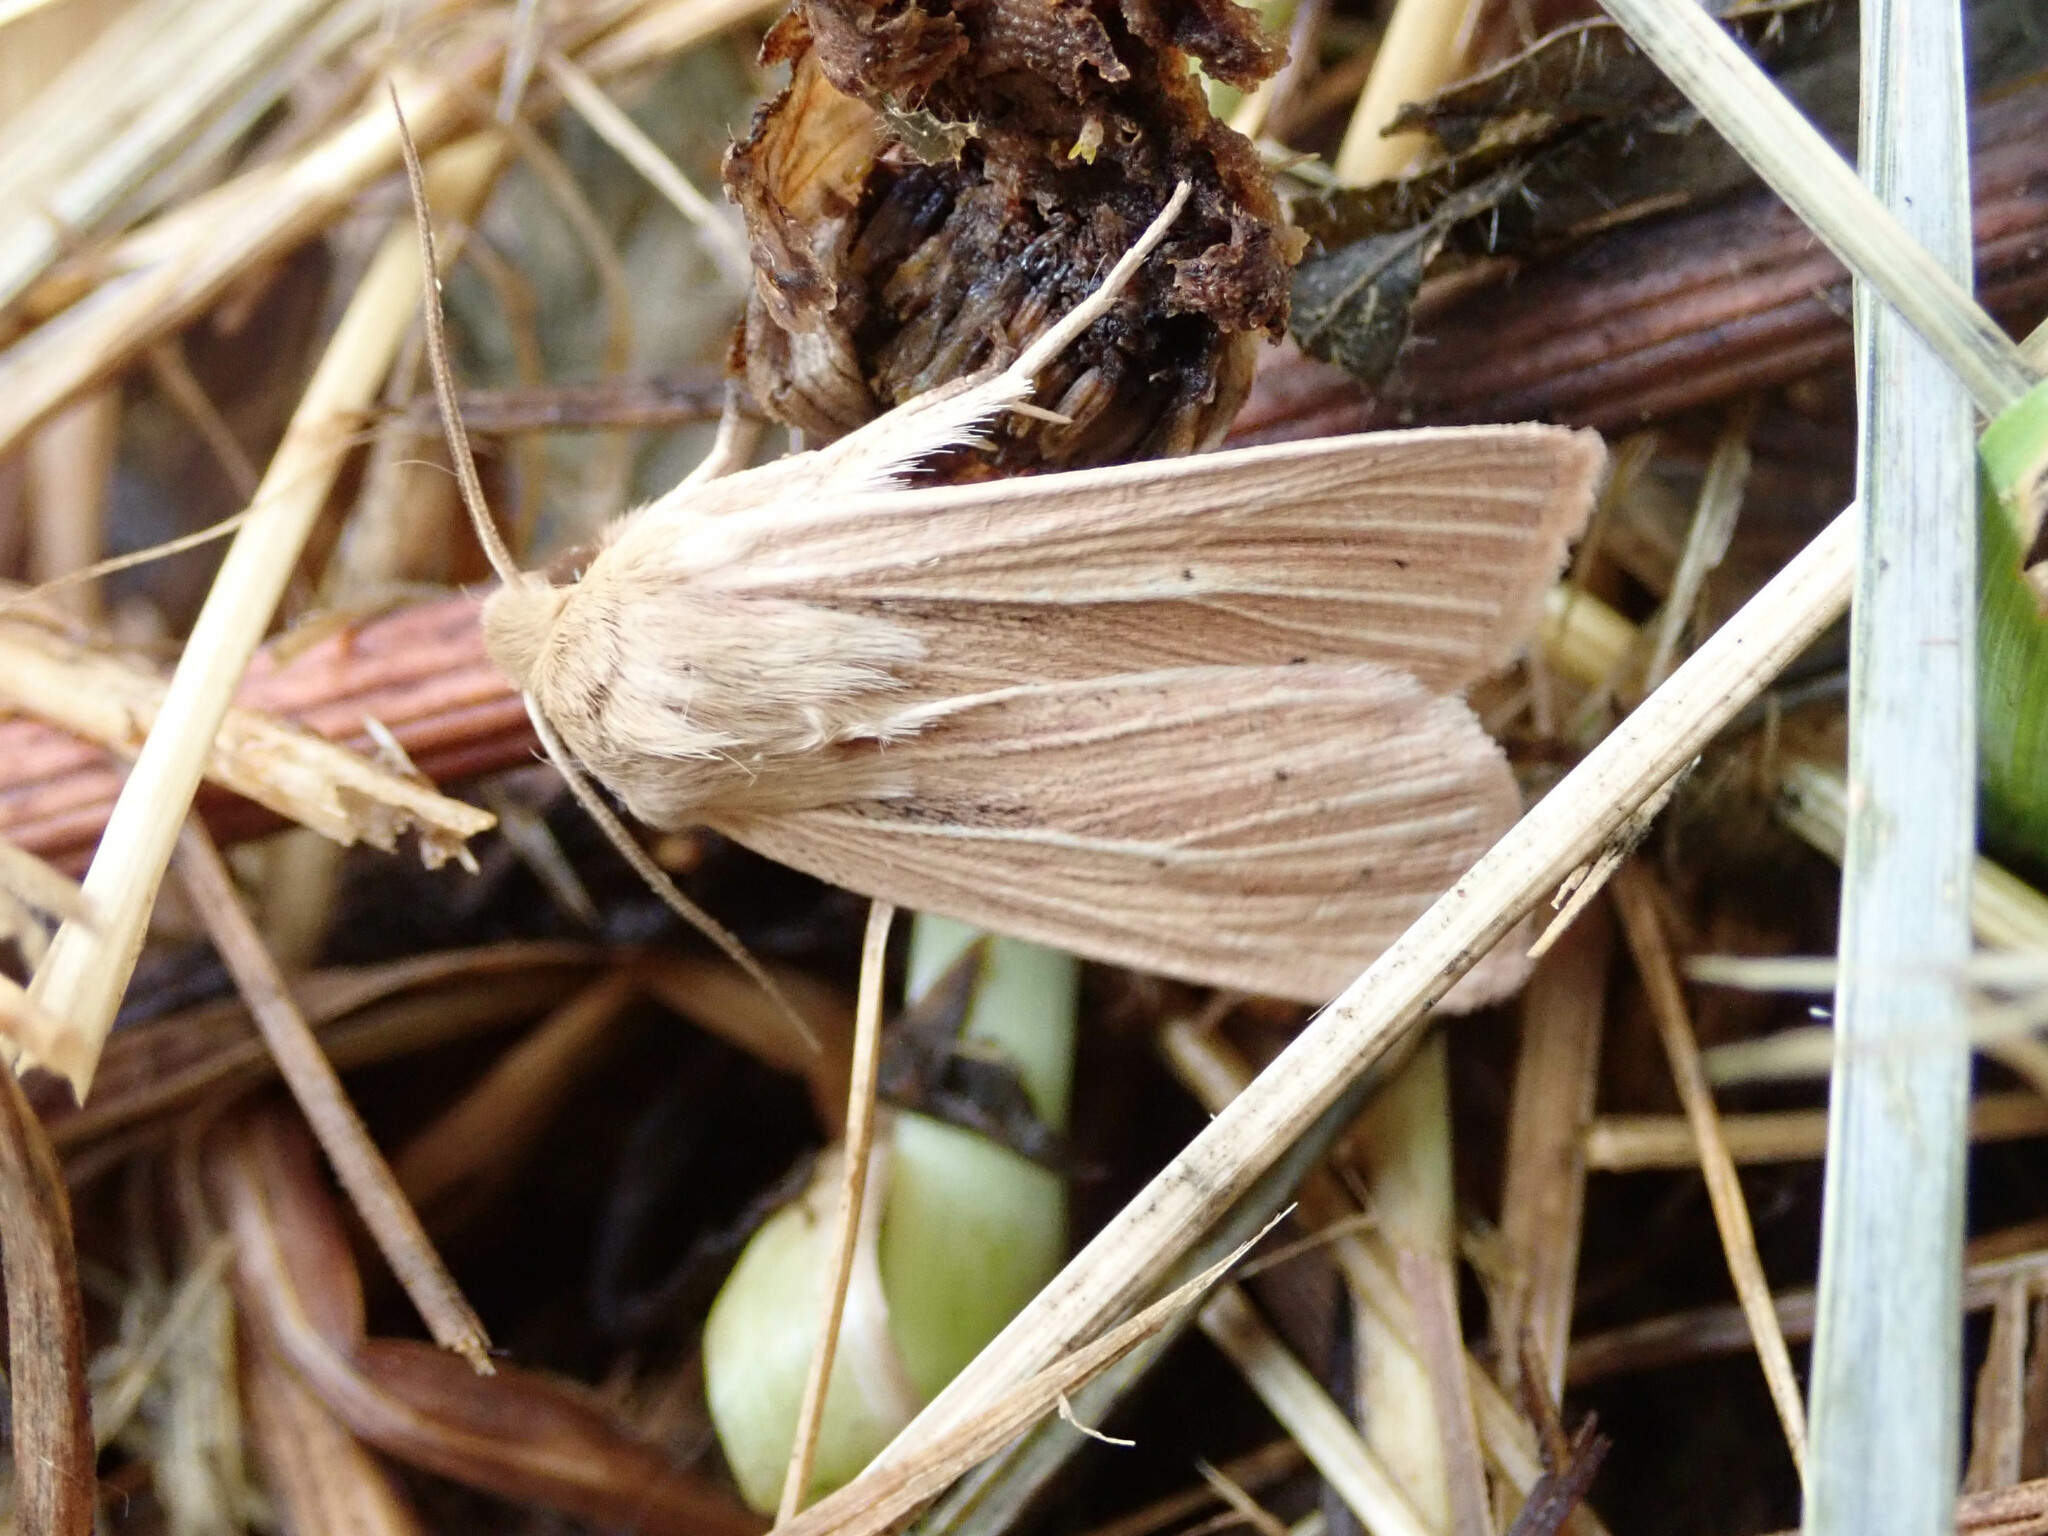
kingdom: Animalia
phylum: Arthropoda
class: Insecta
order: Lepidoptera
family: Noctuidae
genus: Mythimna
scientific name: Mythimna pallens
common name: Common wainscot
